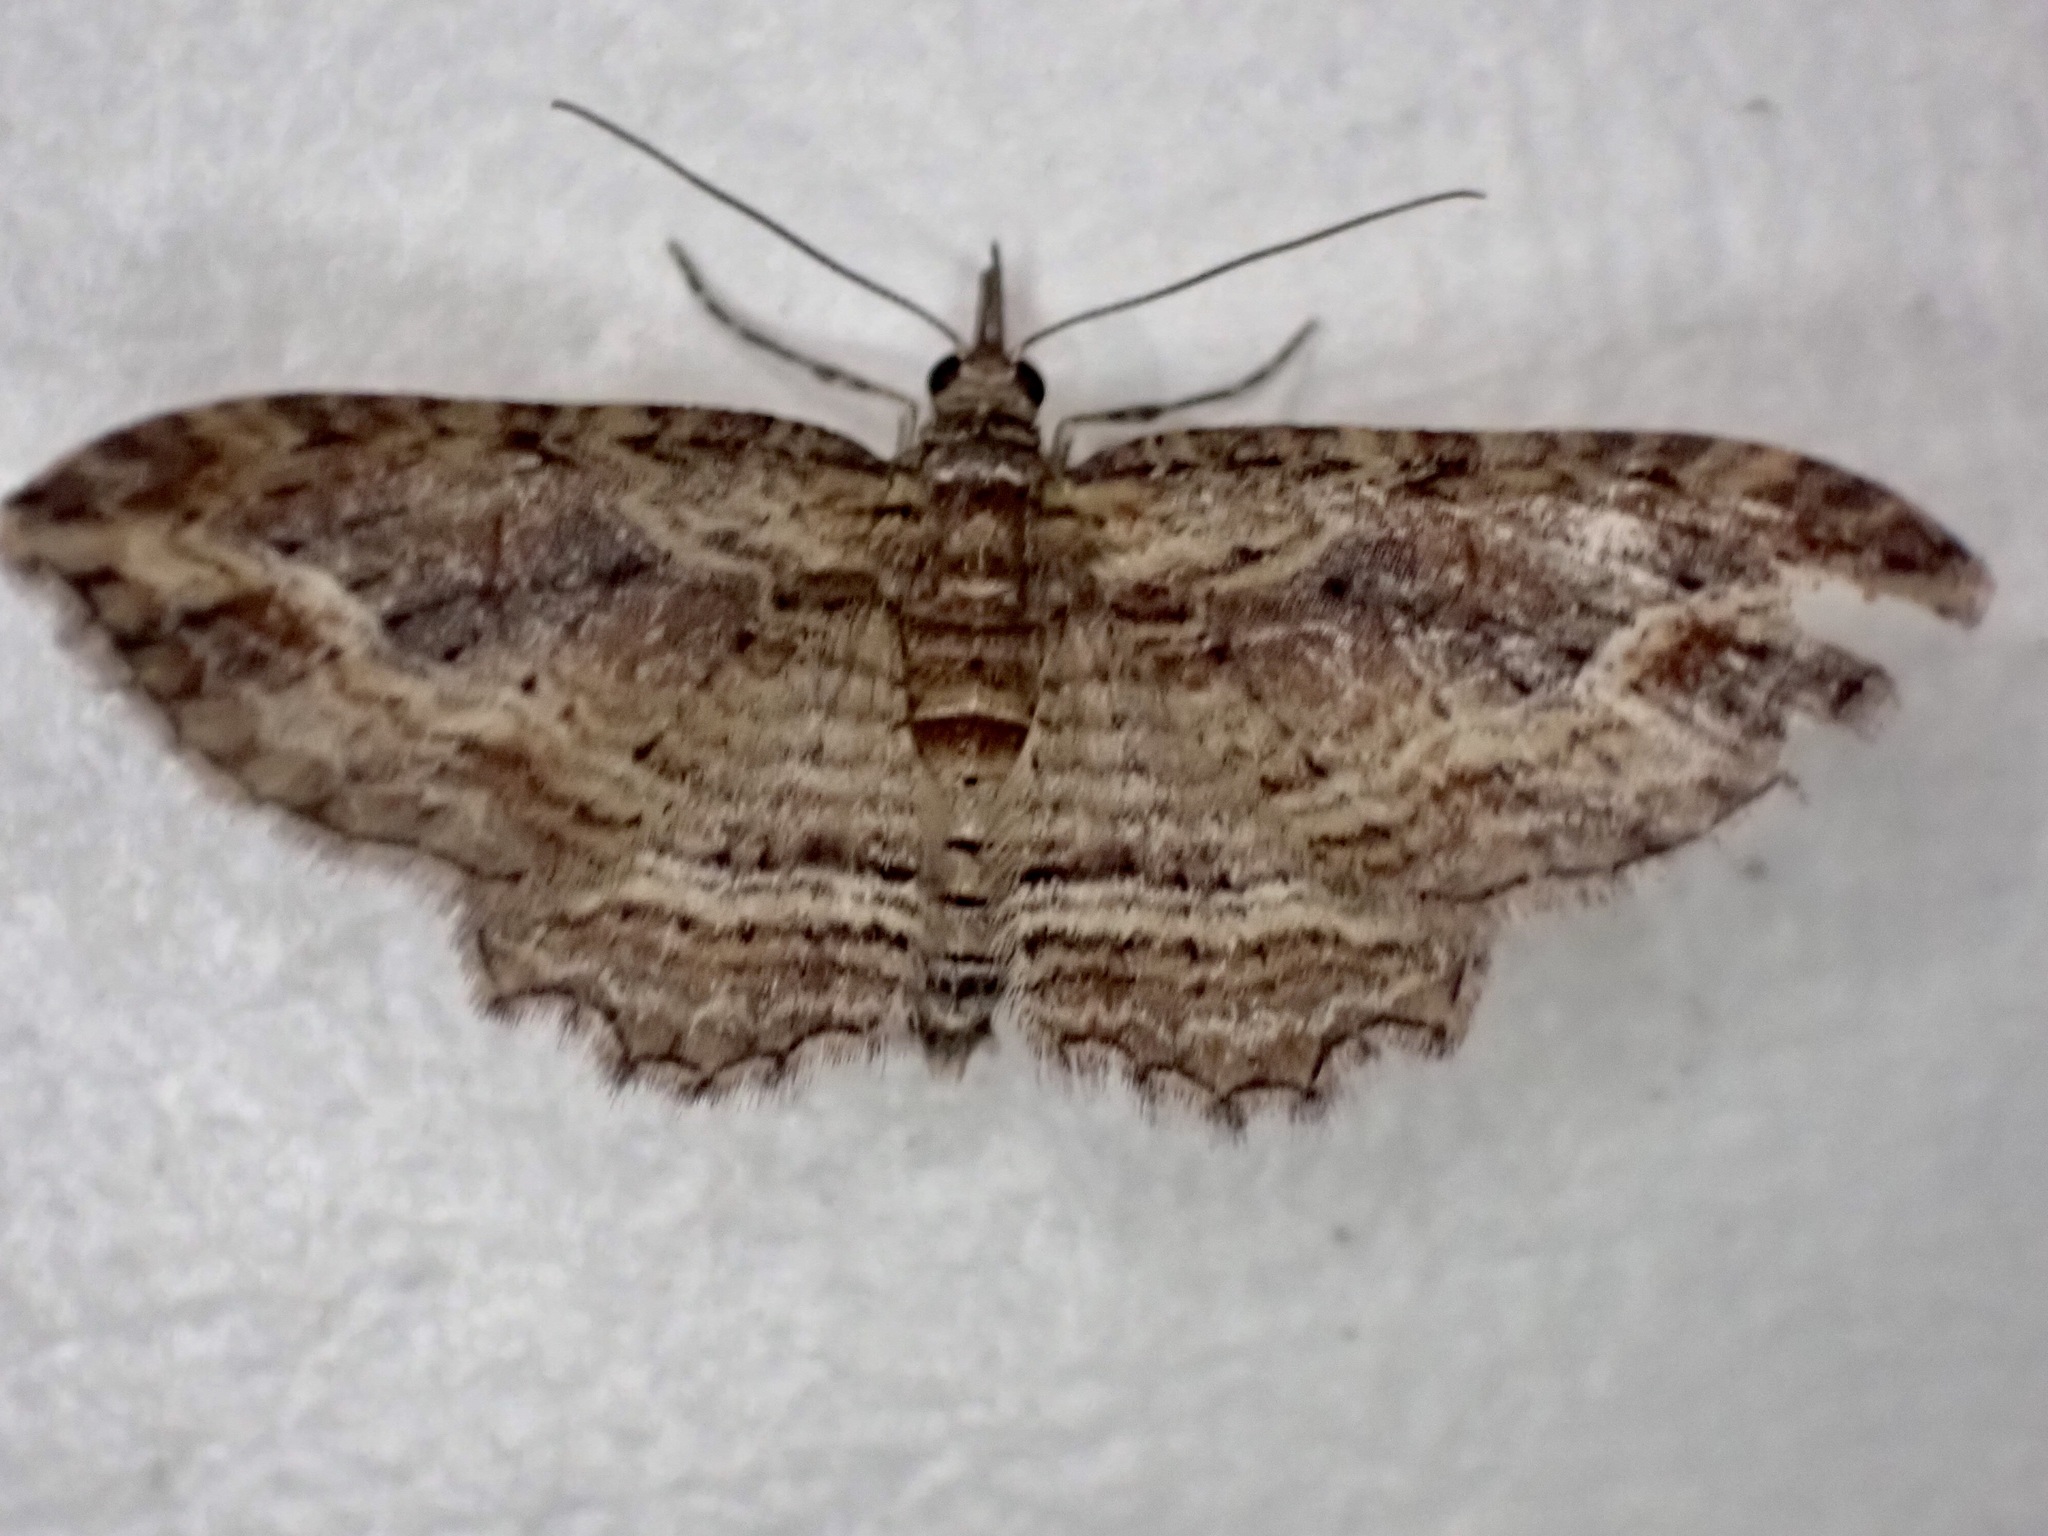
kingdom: Animalia
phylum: Arthropoda
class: Insecta
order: Lepidoptera
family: Geometridae
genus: Chloroclystis
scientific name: Chloroclystis filata
